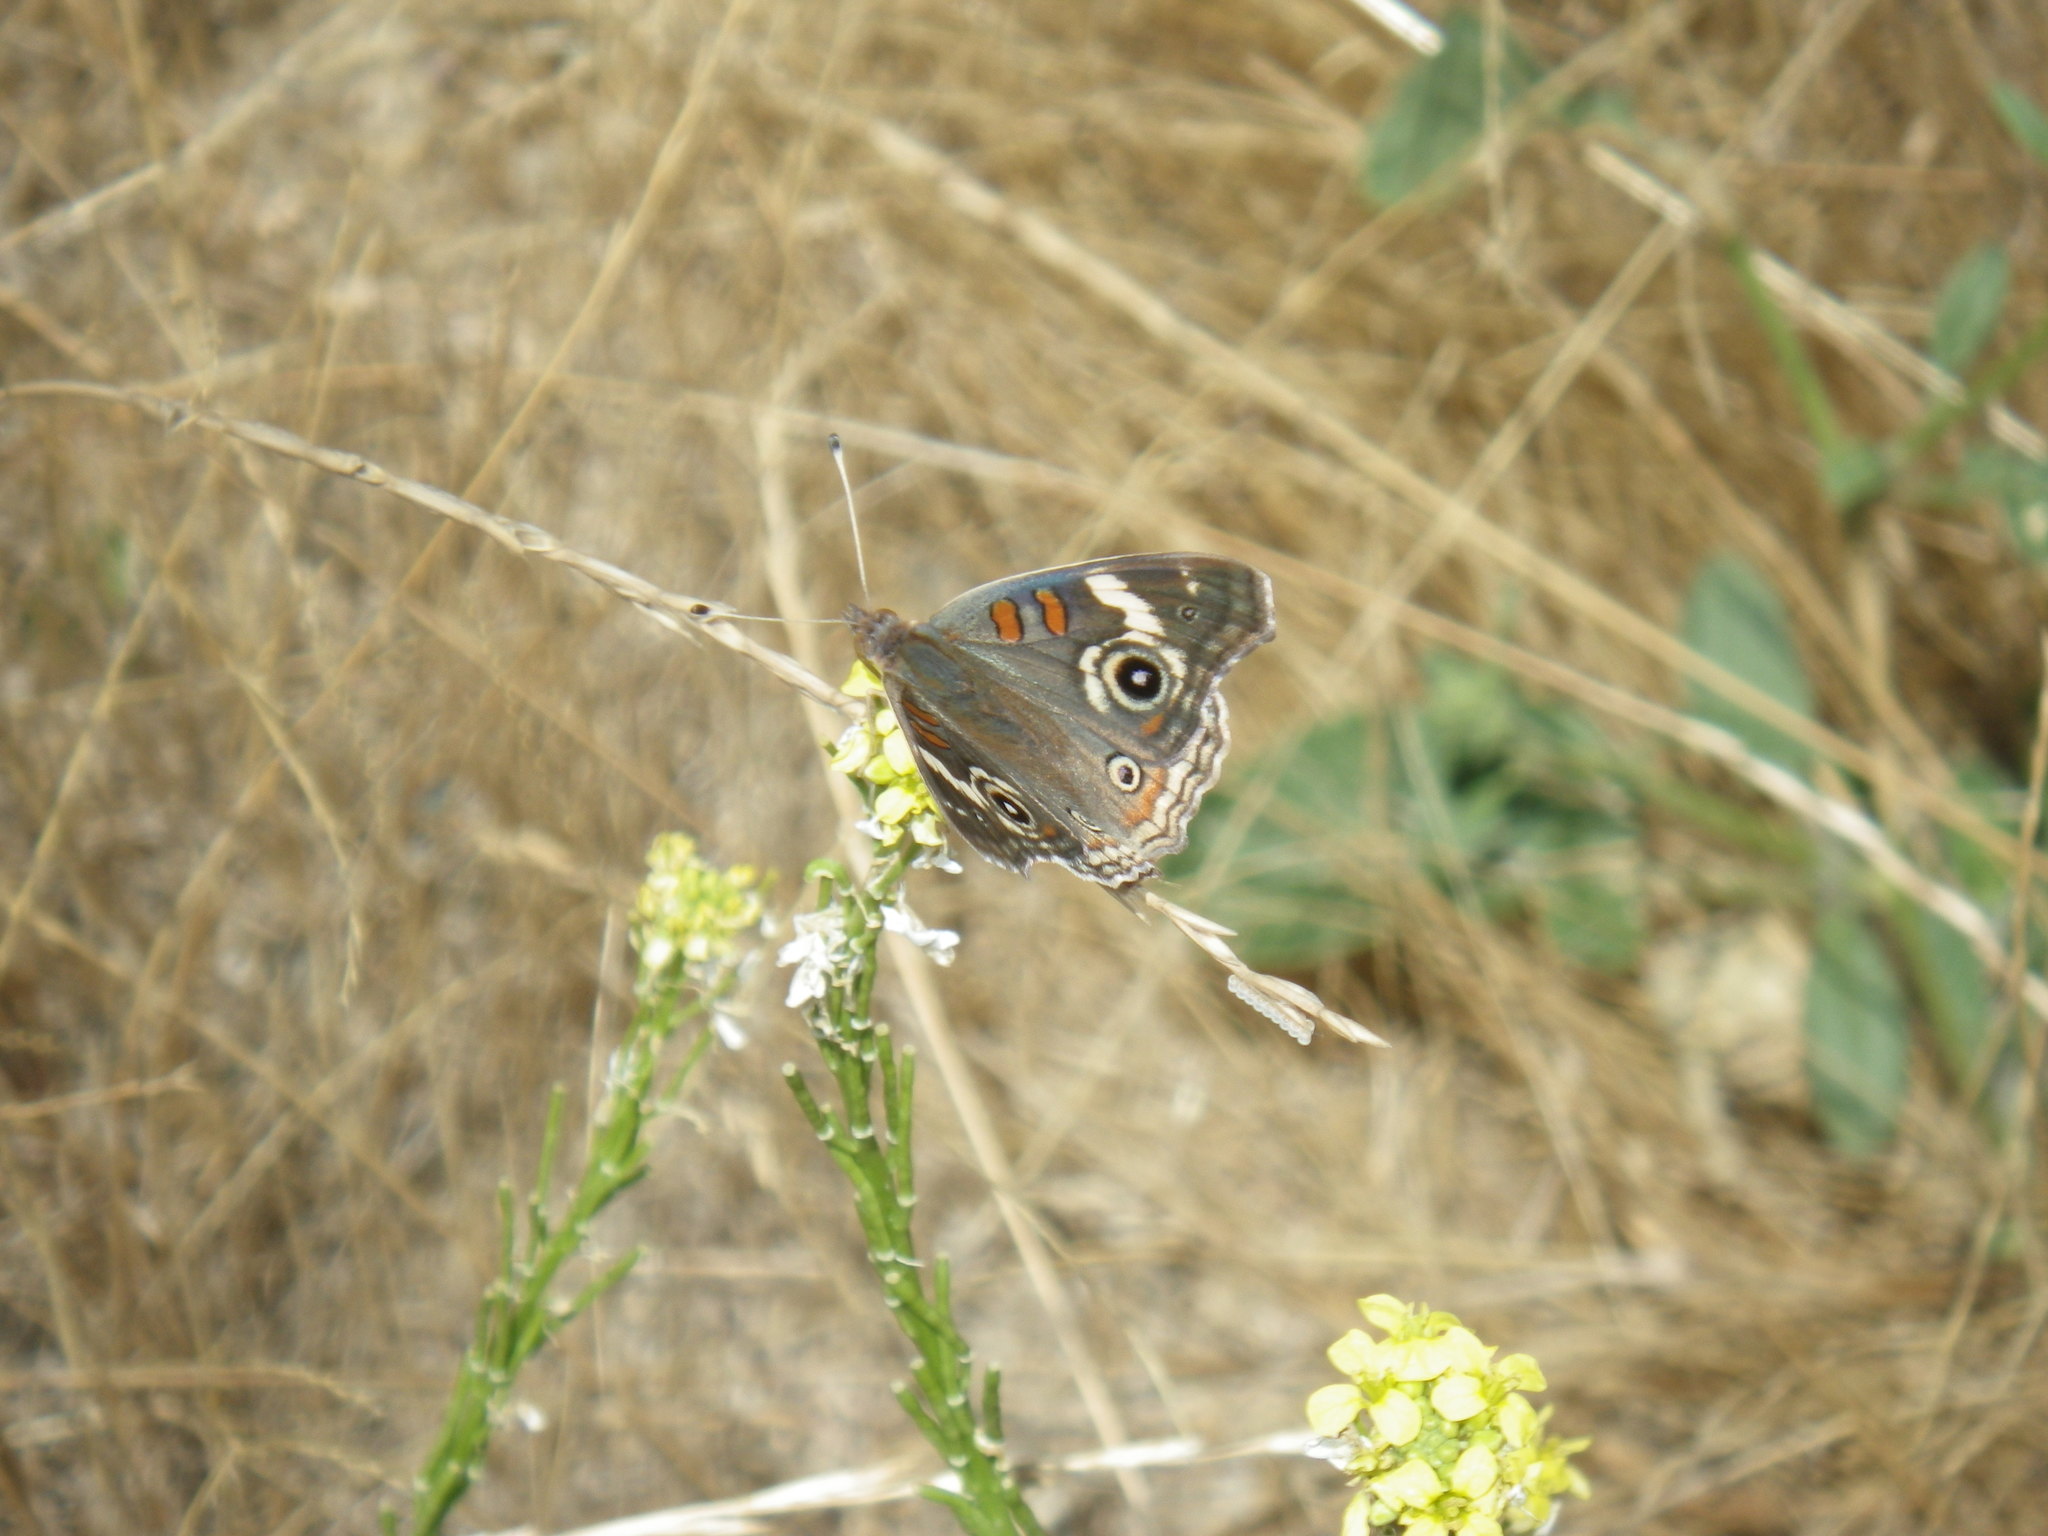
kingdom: Animalia
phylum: Arthropoda
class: Insecta
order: Lepidoptera
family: Nymphalidae
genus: Junonia
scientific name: Junonia grisea
